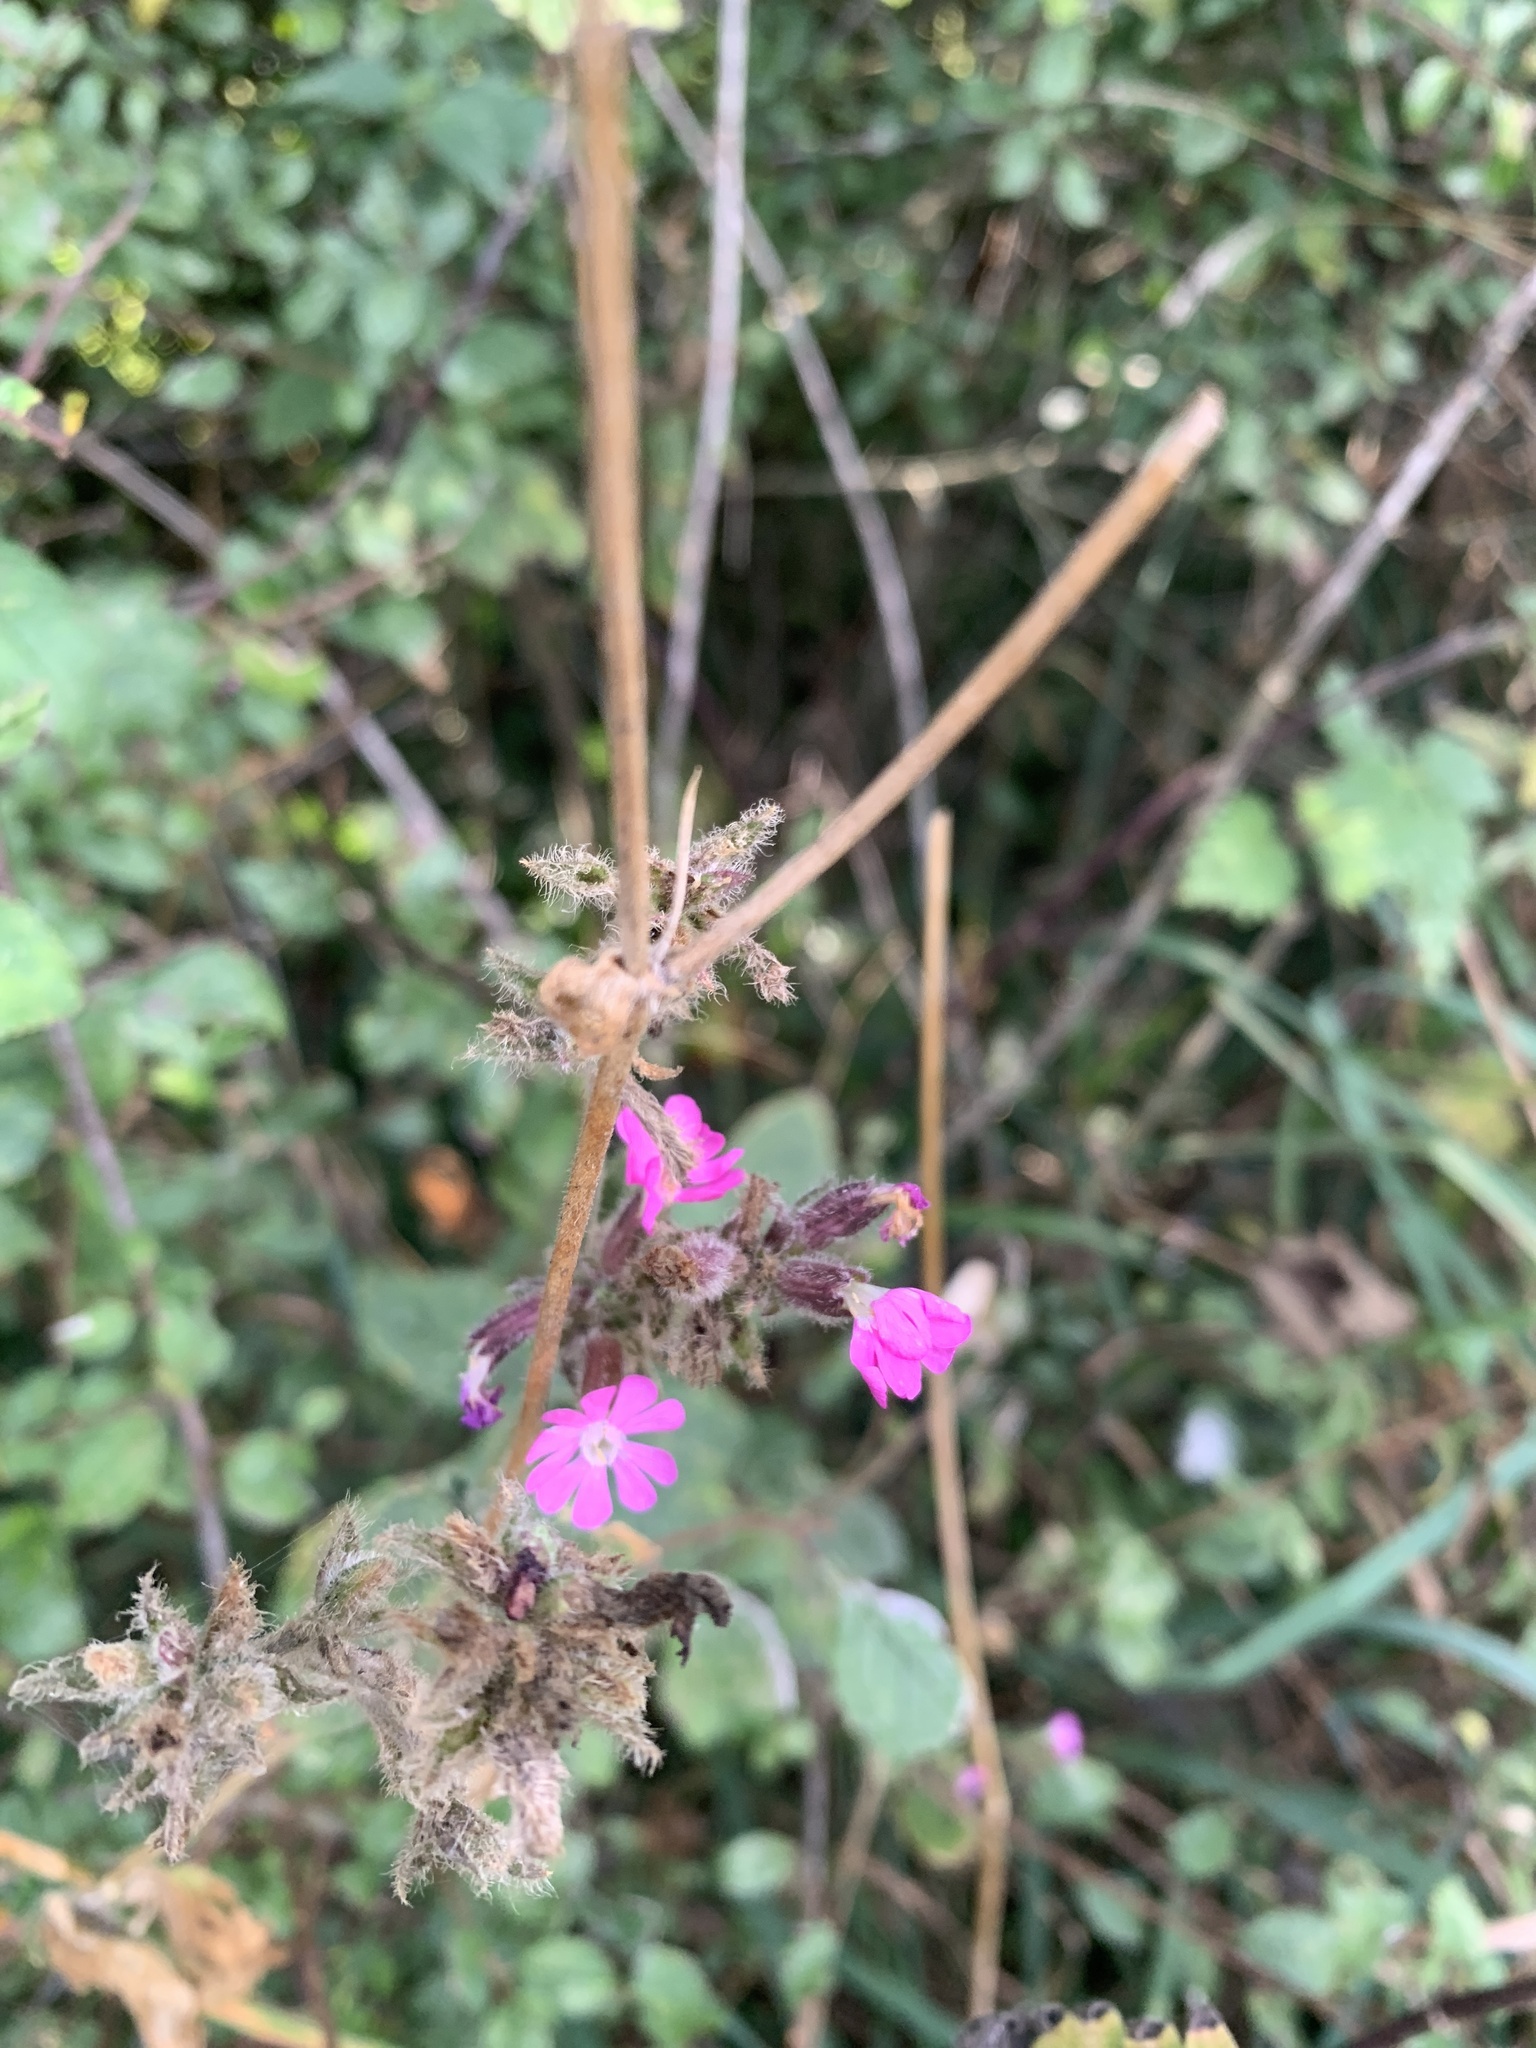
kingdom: Plantae
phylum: Tracheophyta
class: Magnoliopsida
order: Caryophyllales
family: Caryophyllaceae
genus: Silene
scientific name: Silene dioica
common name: Red campion
